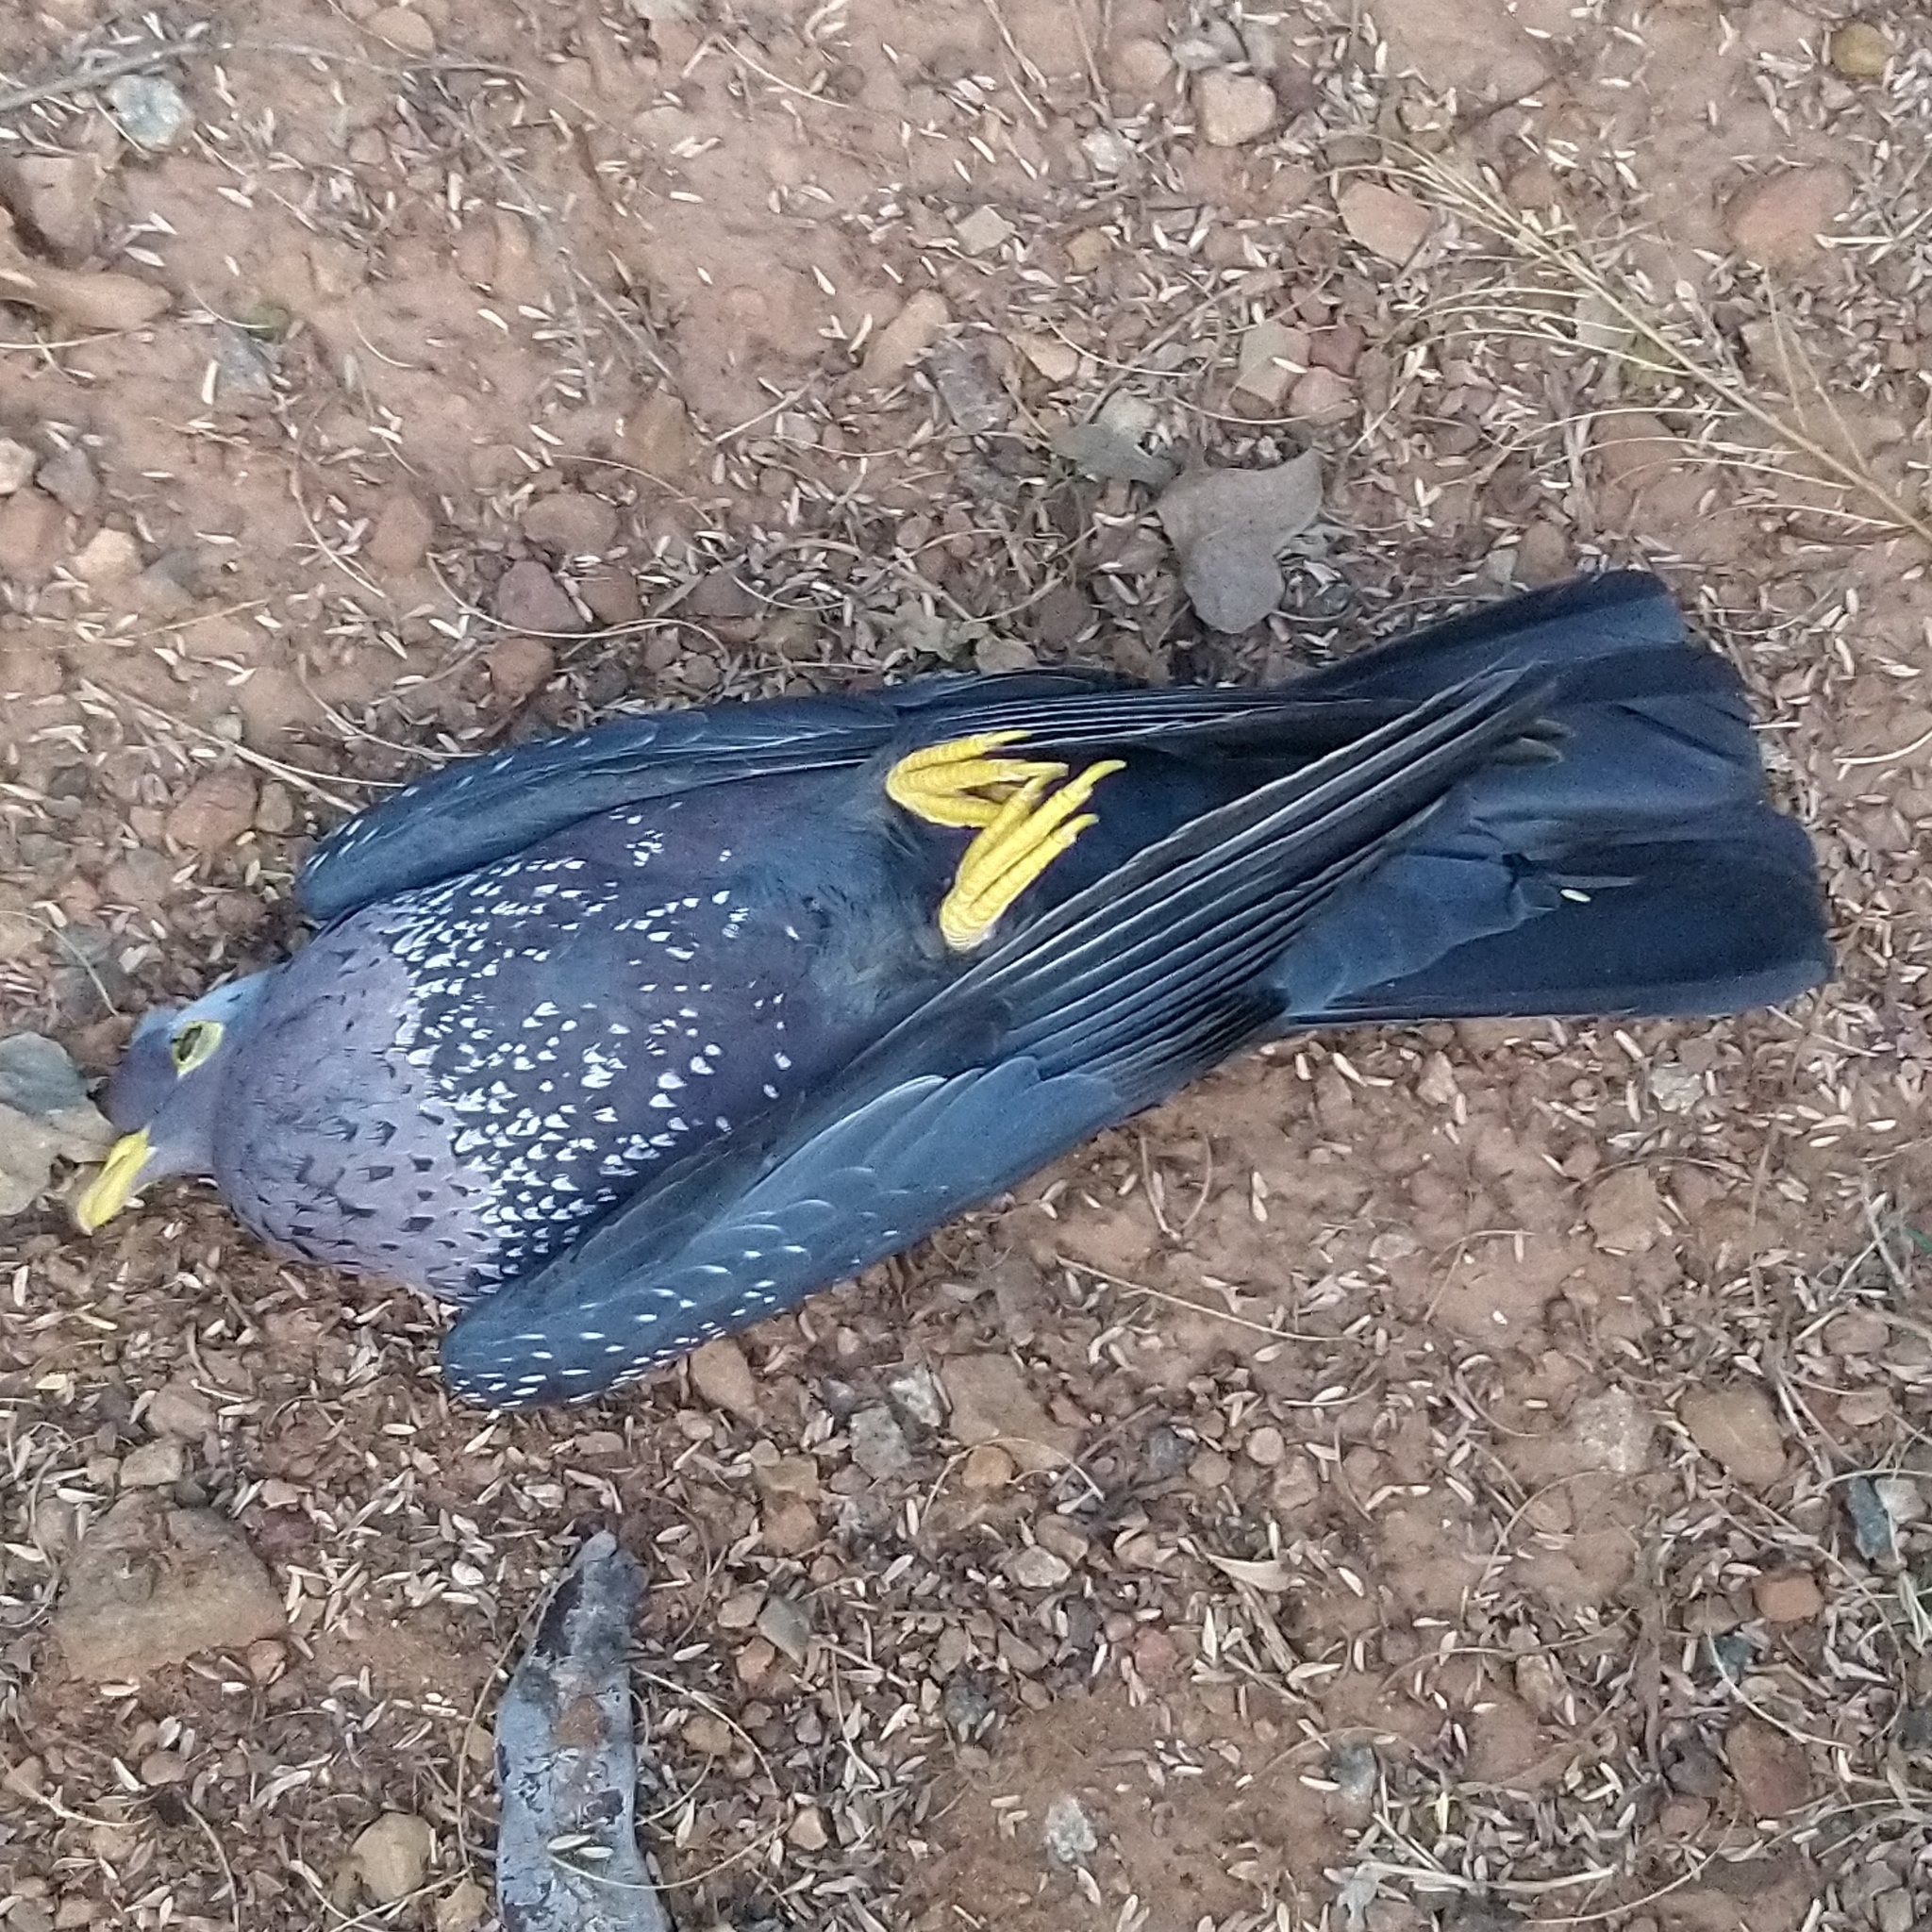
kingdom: Animalia
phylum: Chordata
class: Aves
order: Columbiformes
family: Columbidae
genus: Columba
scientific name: Columba arquatrix
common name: African olive pigeon
